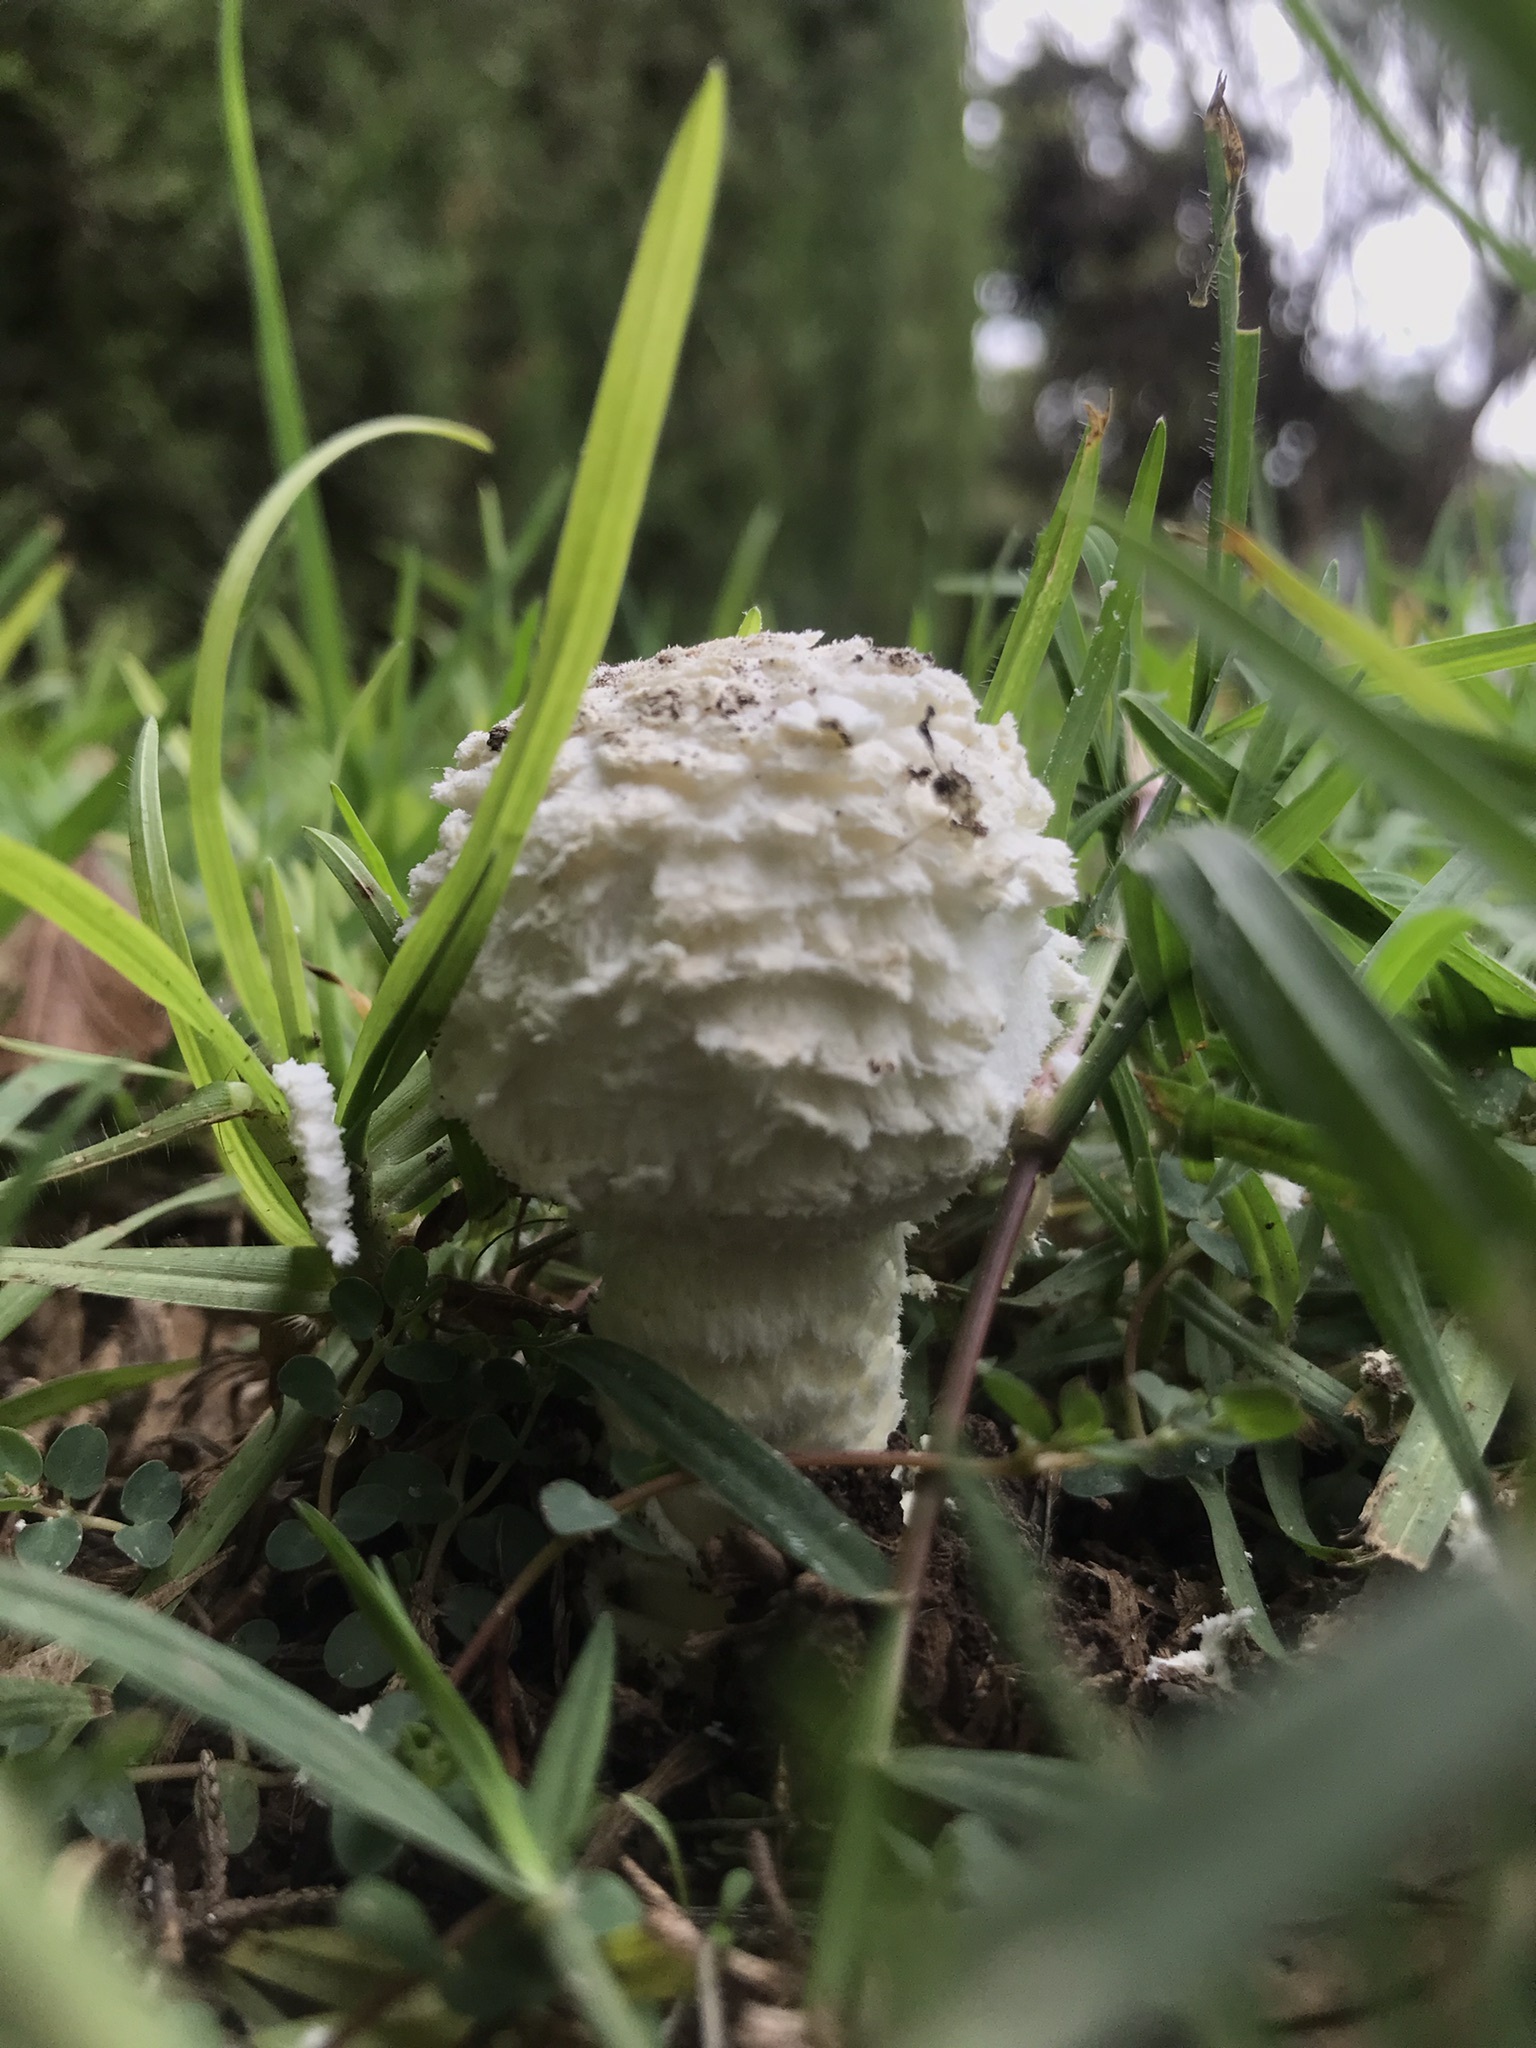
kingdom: Fungi
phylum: Basidiomycota
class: Agaricomycetes
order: Agaricales
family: Amanitaceae
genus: Aspidella
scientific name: Aspidella foetens
